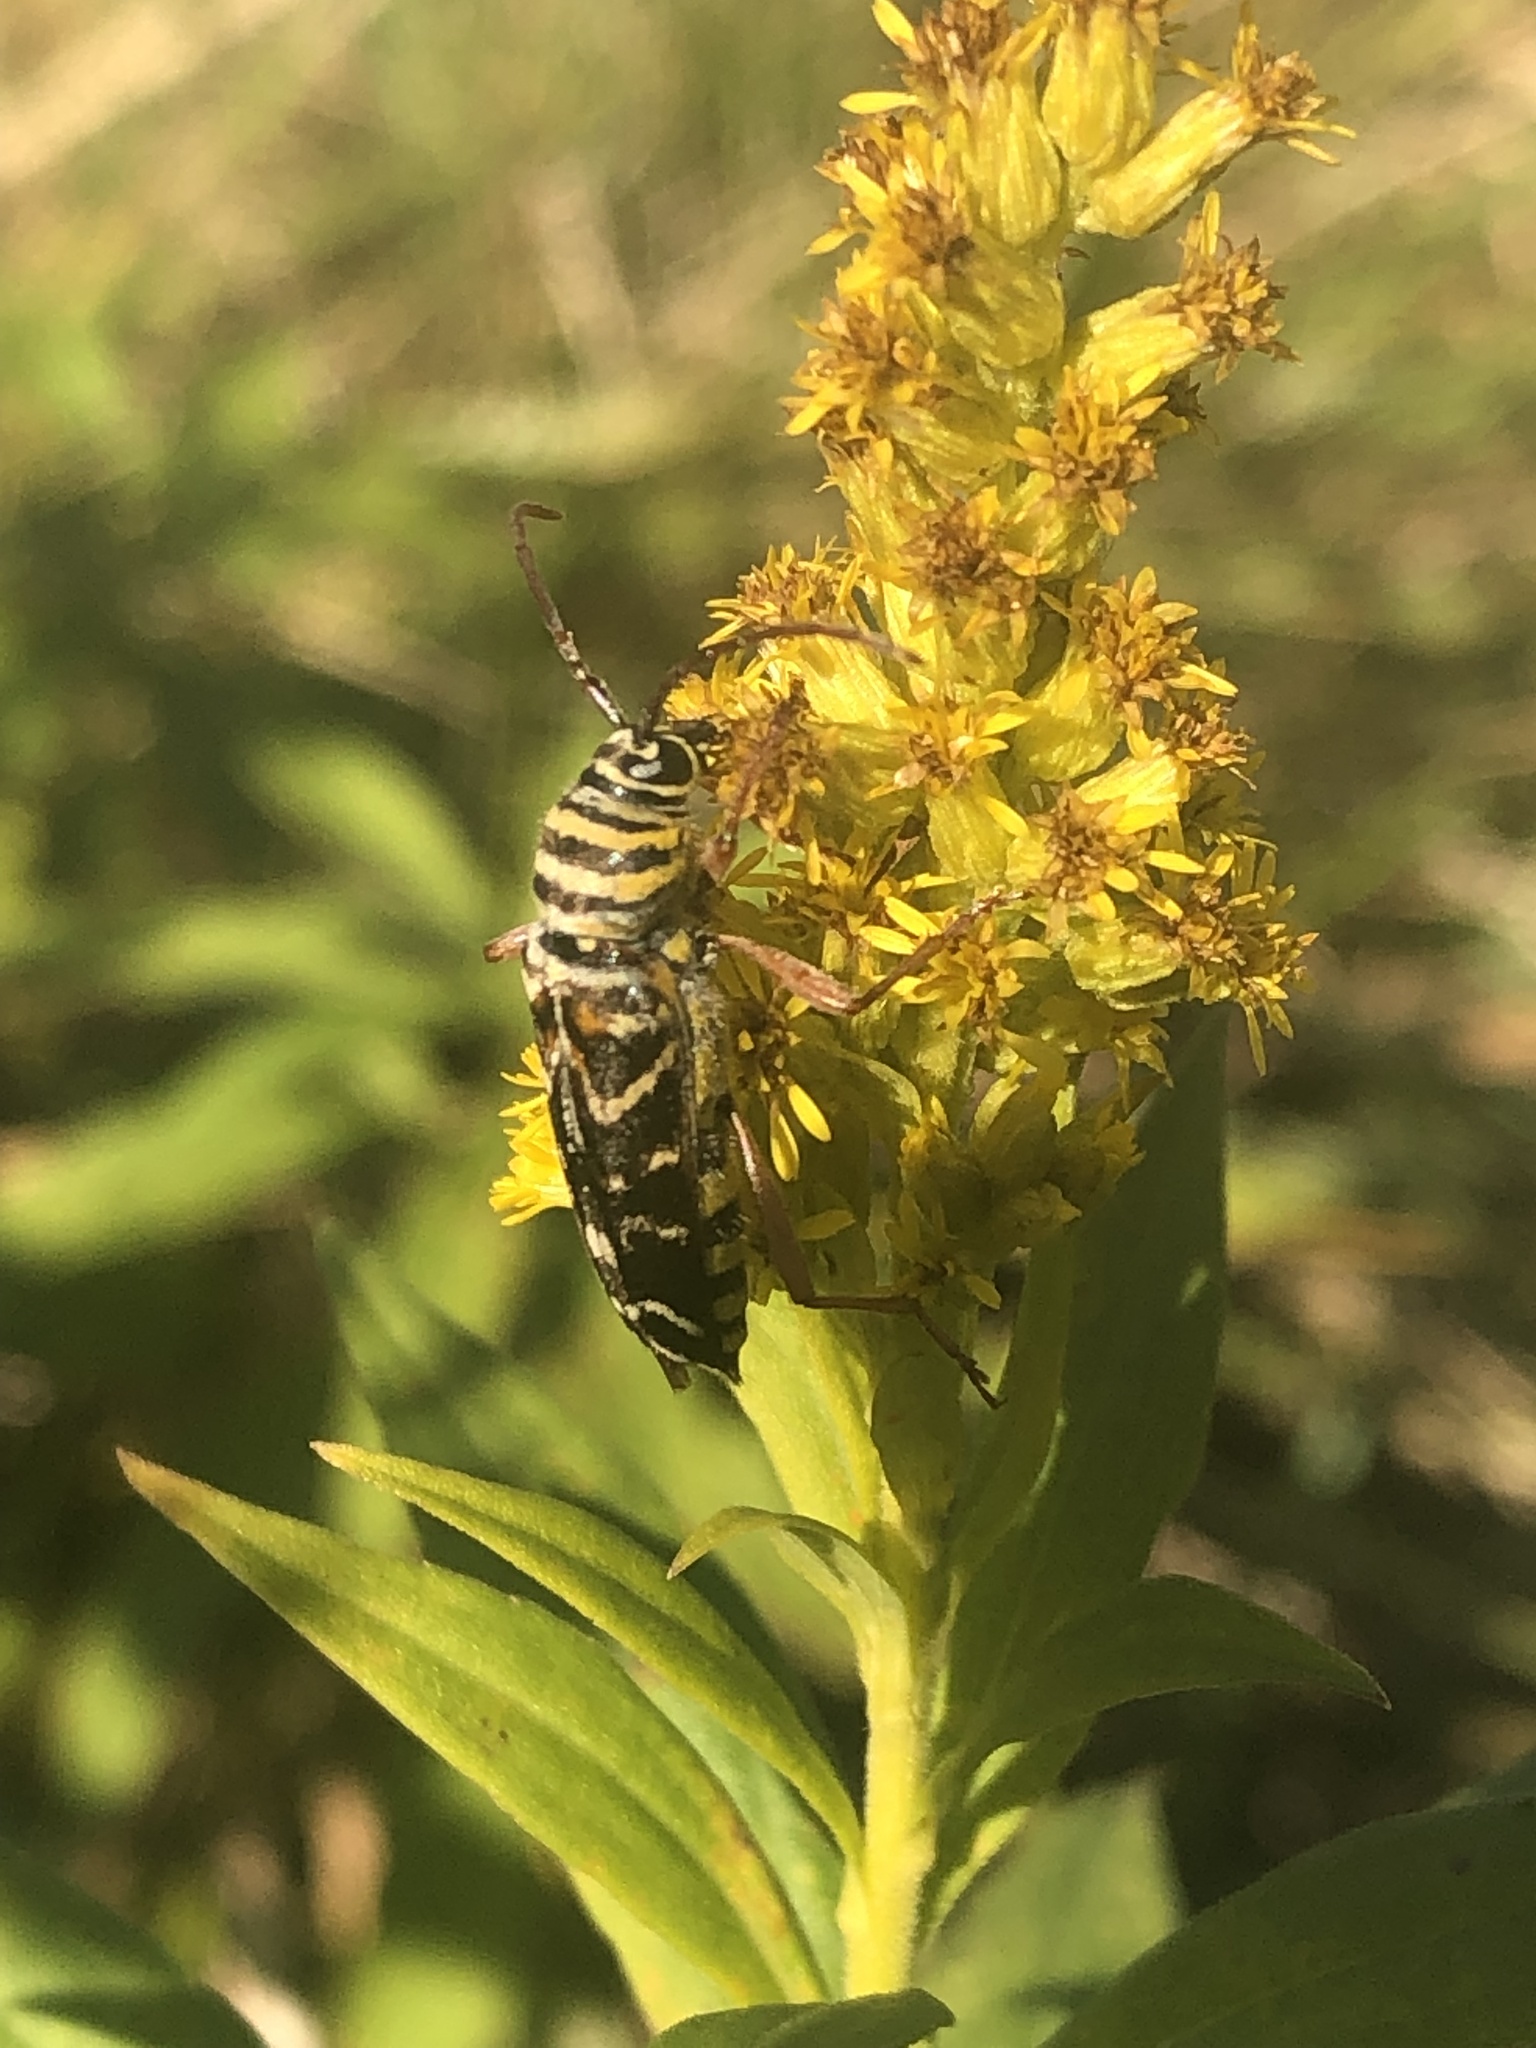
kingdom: Animalia
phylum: Arthropoda
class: Insecta
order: Coleoptera
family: Cerambycidae
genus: Megacyllene
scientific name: Megacyllene robiniae
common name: Locust borer
